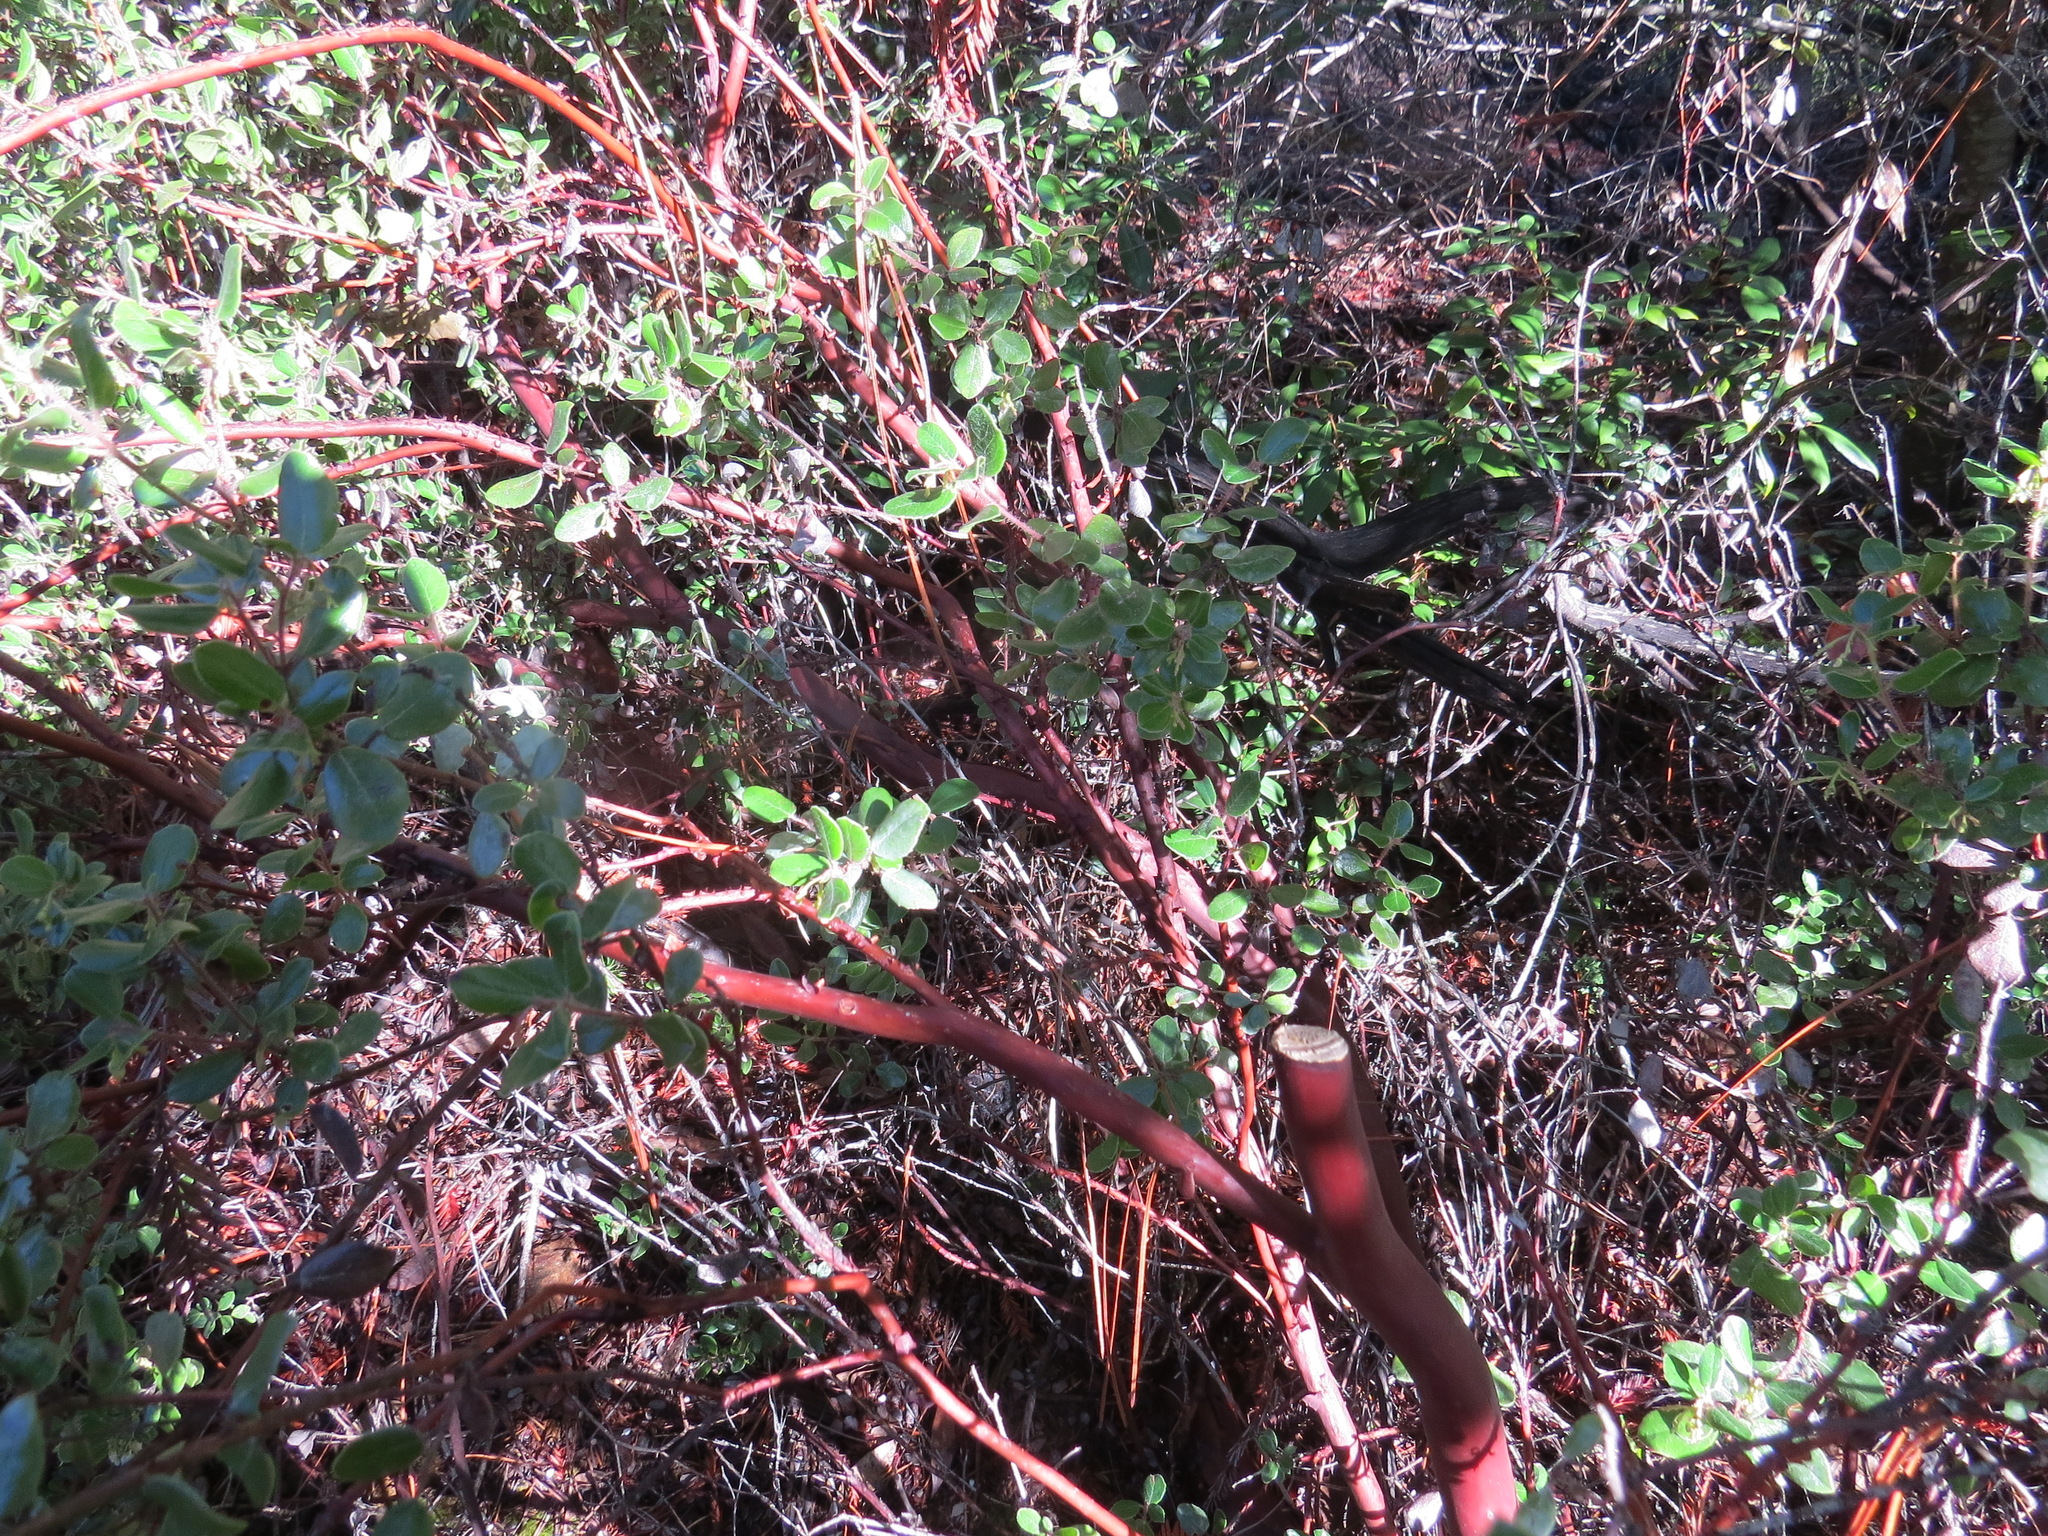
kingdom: Plantae
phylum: Tracheophyta
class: Magnoliopsida
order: Ericales
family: Ericaceae
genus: Arctostaphylos
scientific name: Arctostaphylos nummularia
